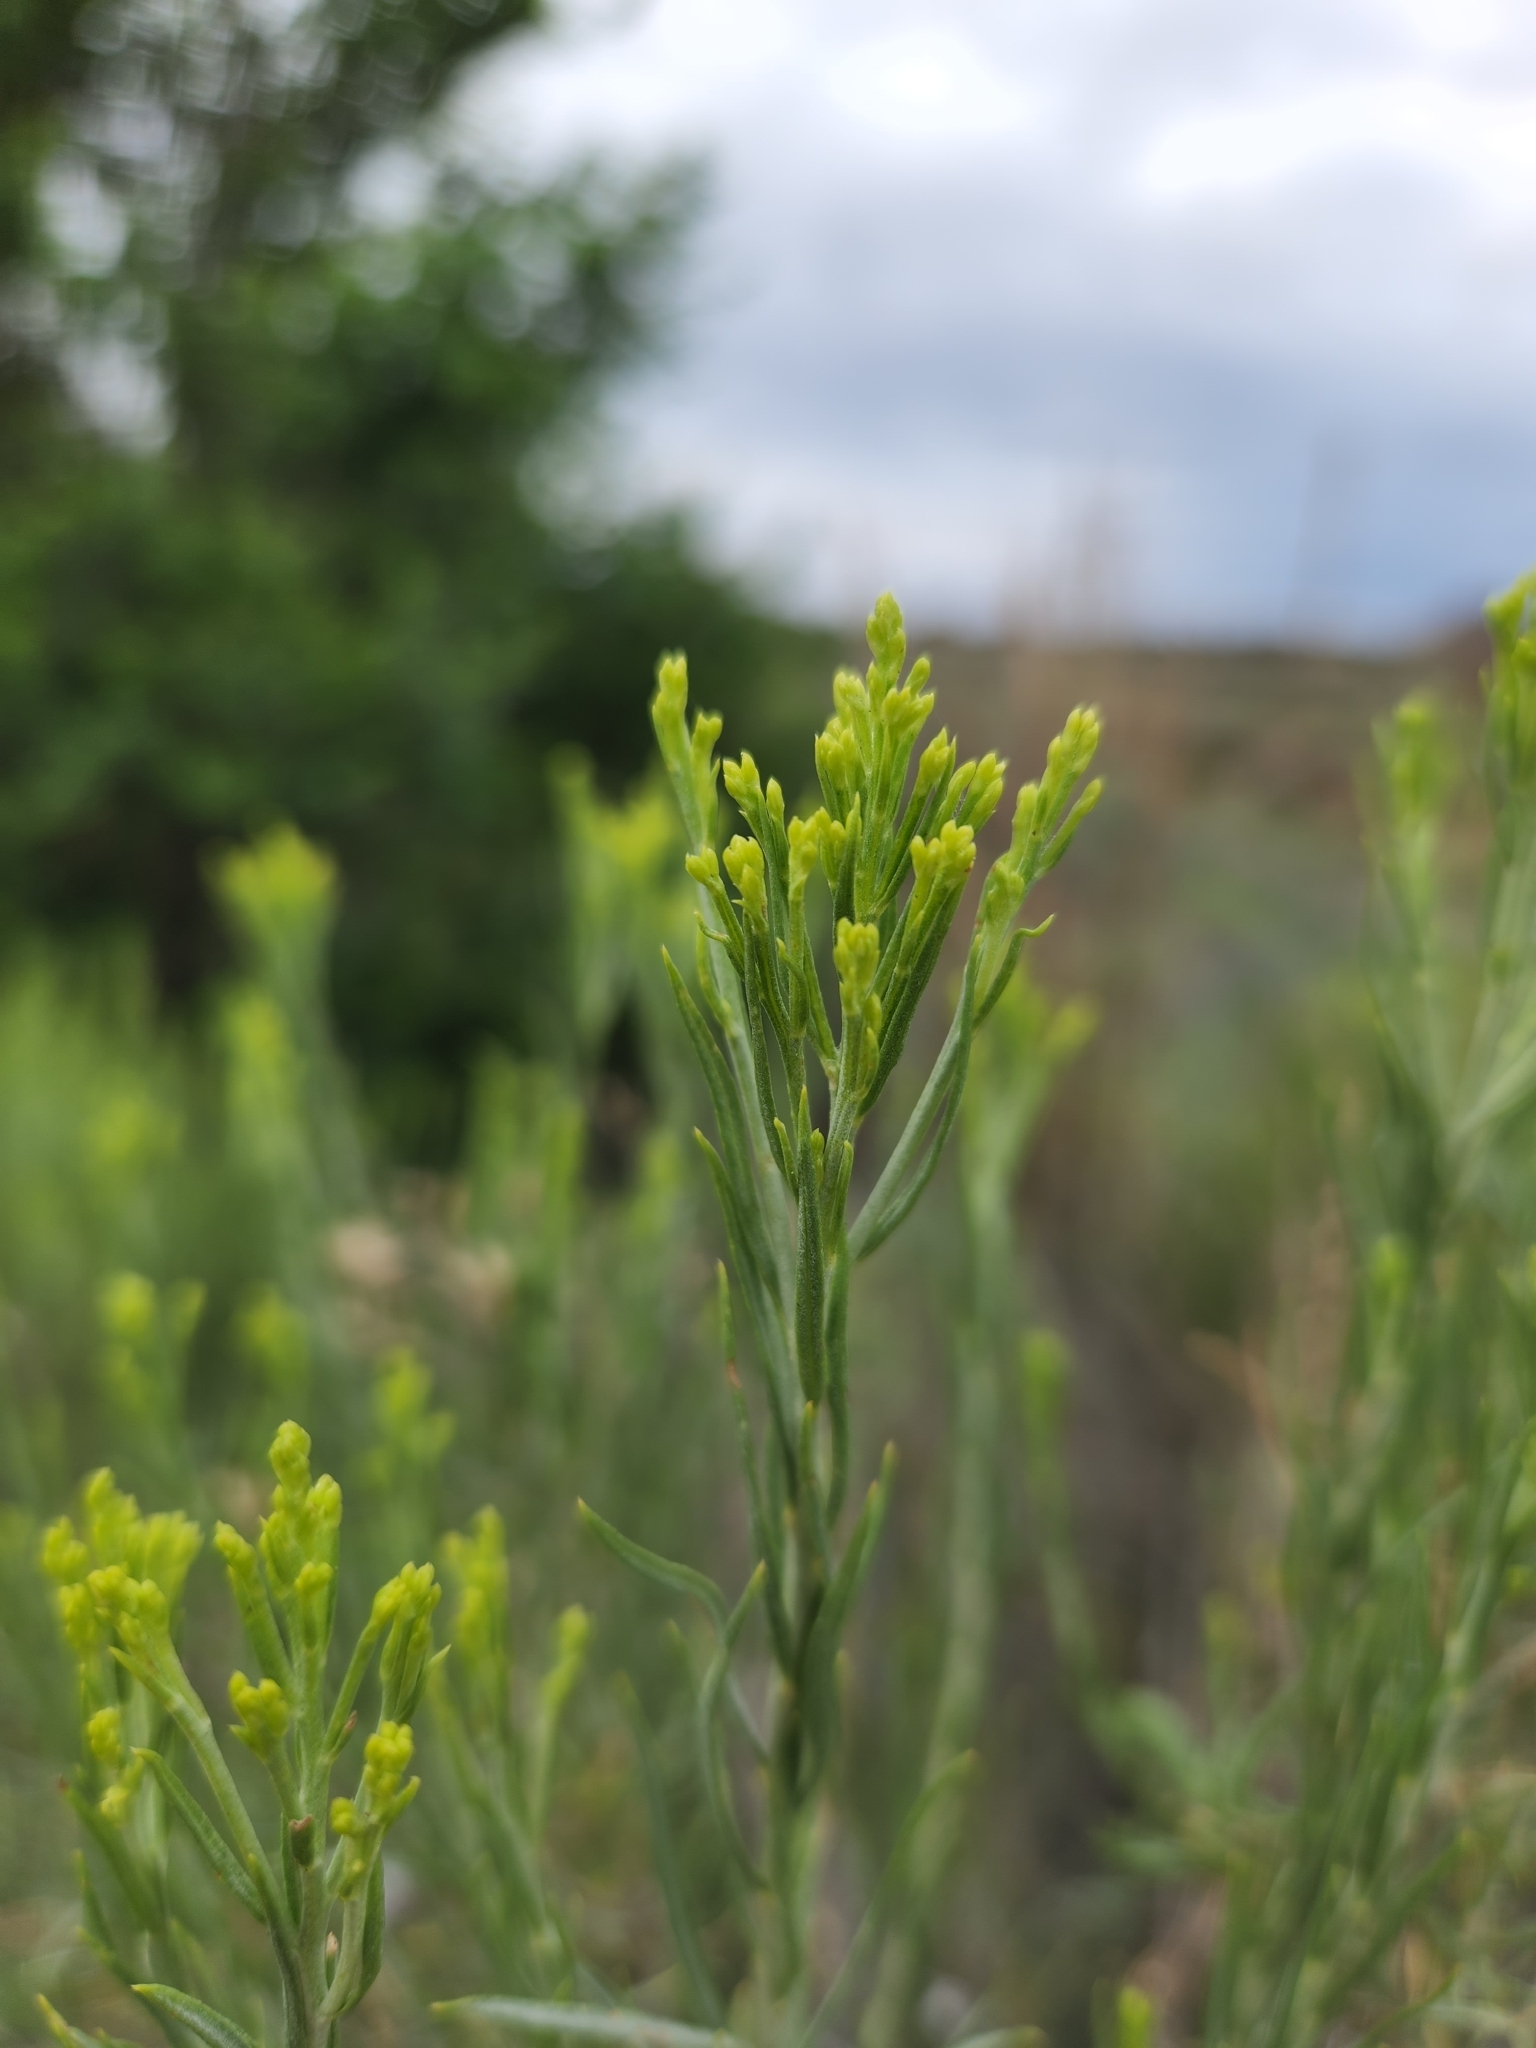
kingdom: Plantae
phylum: Tracheophyta
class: Magnoliopsida
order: Asterales
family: Asteraceae
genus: Ericameria
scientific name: Ericameria nauseosa
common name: Rubber rabbitbrush
